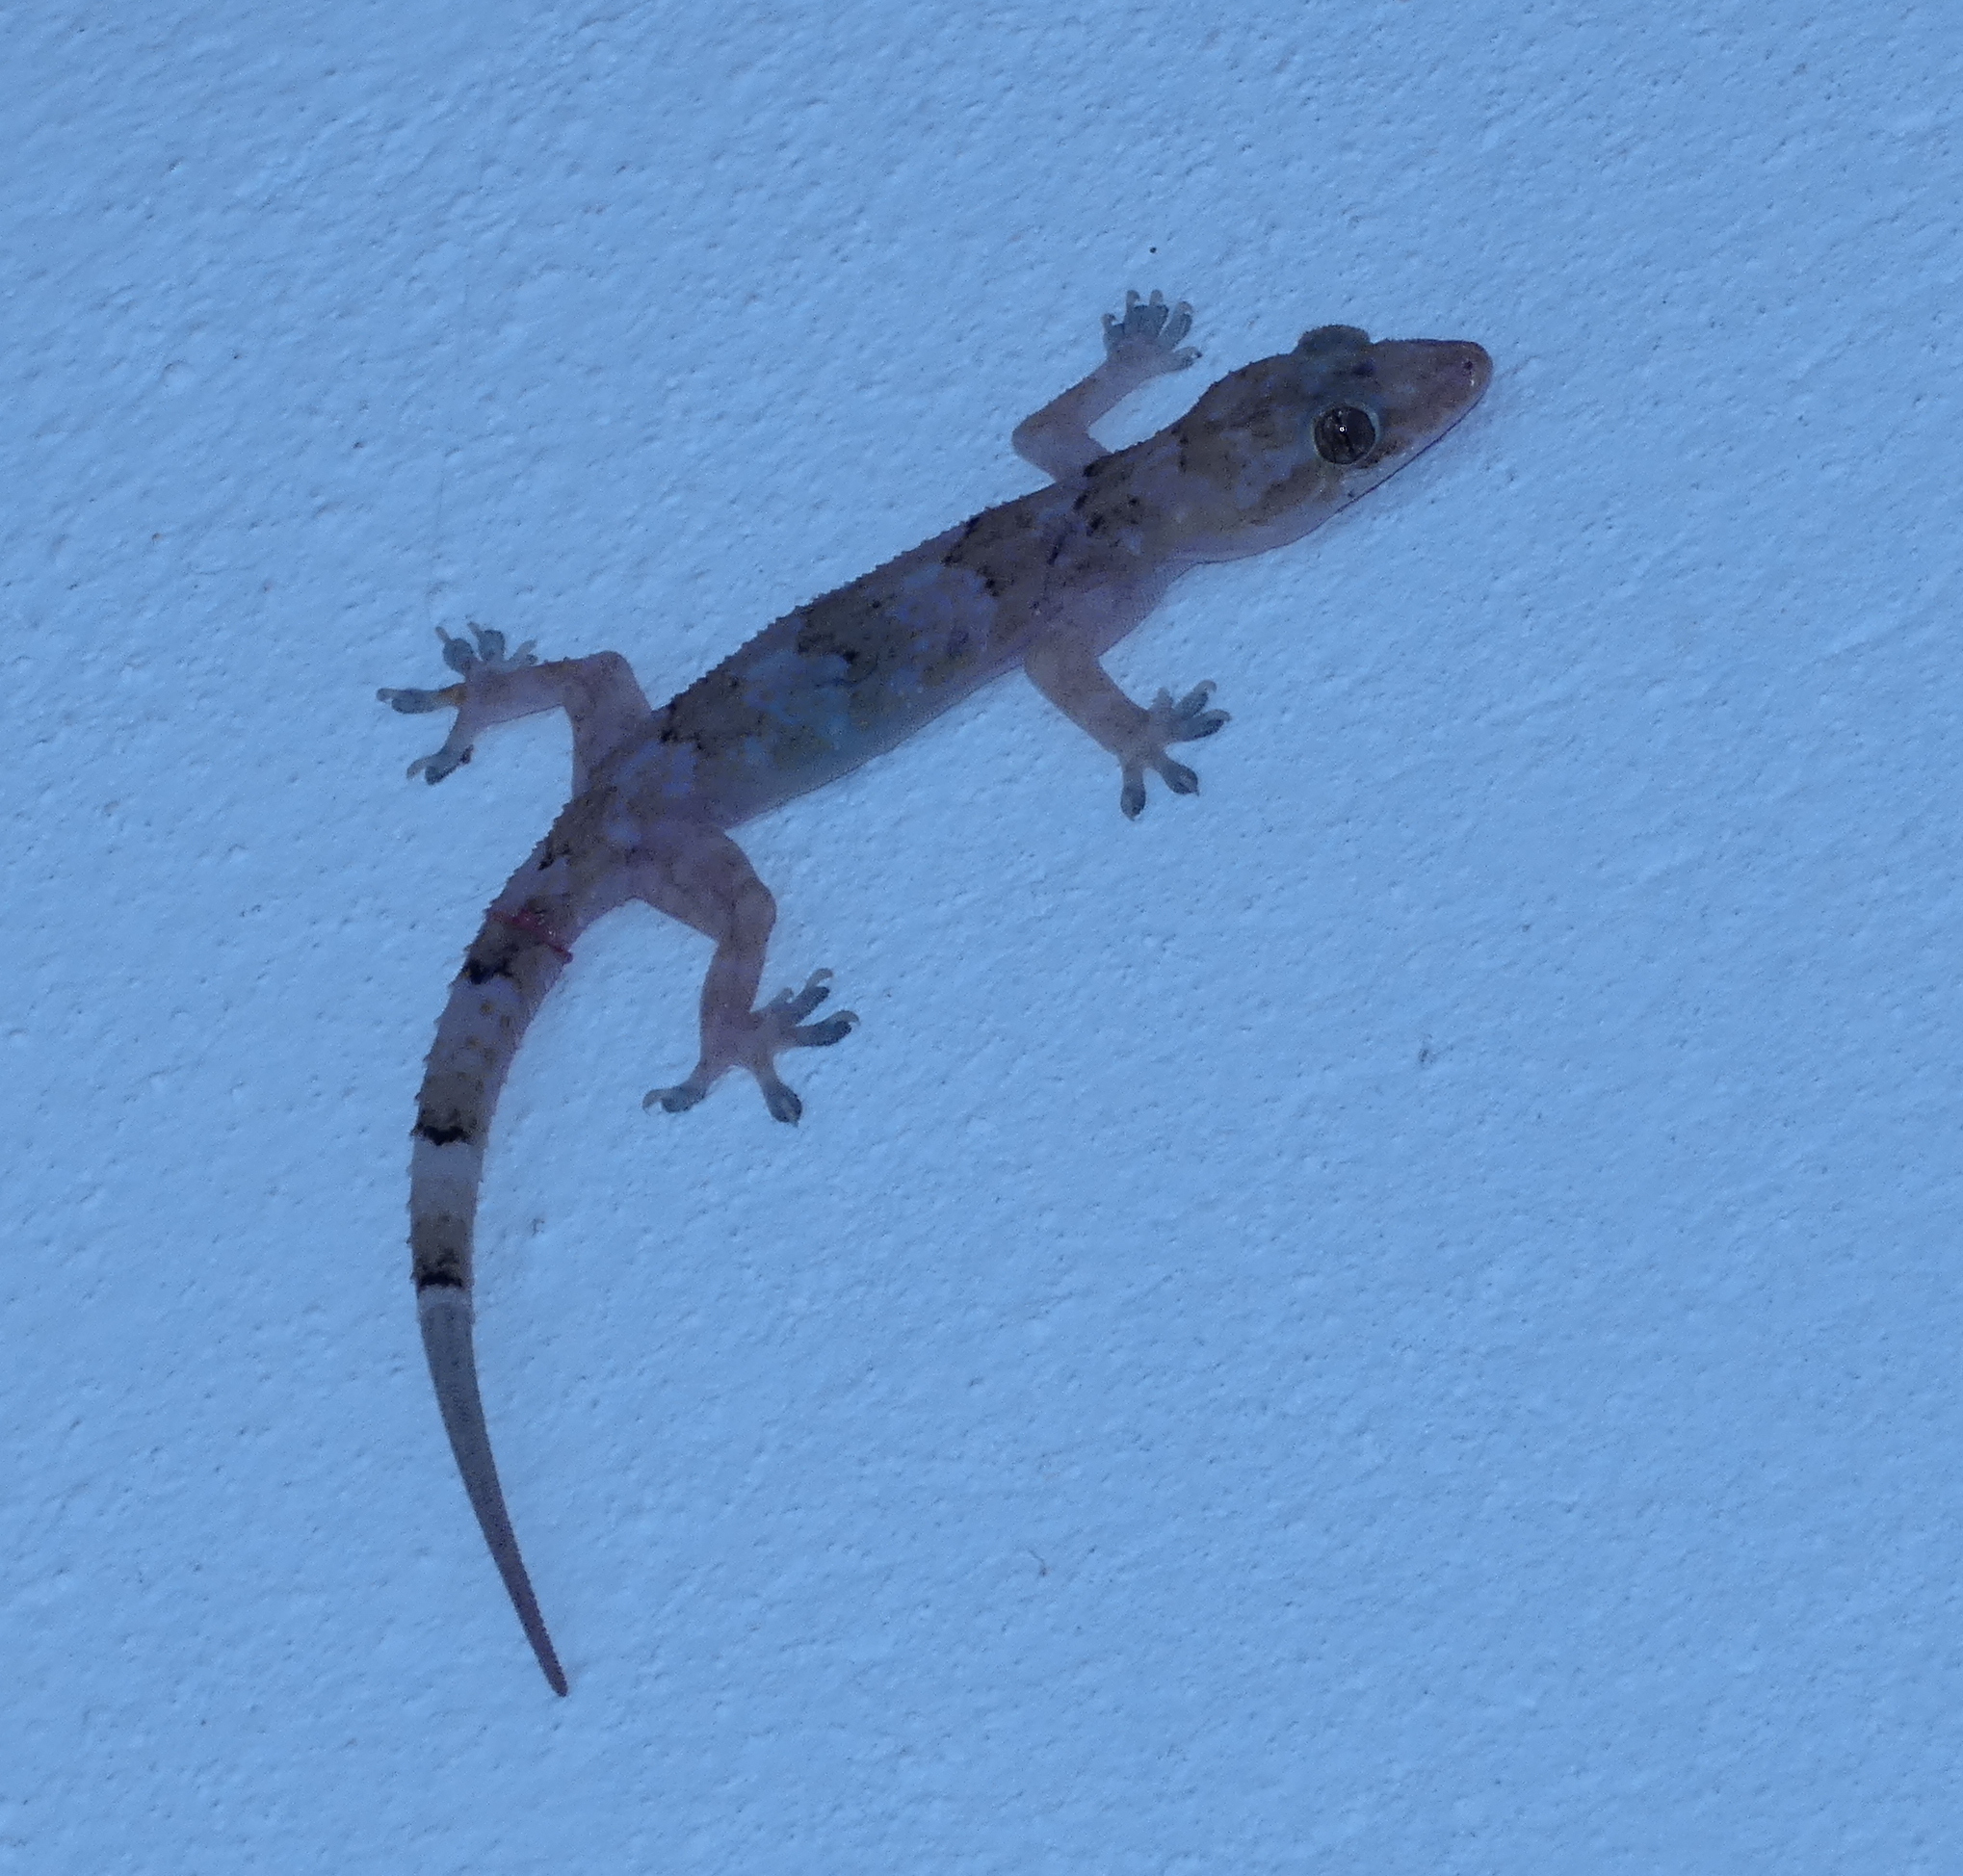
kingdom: Animalia
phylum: Chordata
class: Squamata
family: Gekkonidae
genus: Hemidactylus
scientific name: Hemidactylus mabouia
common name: House gecko
